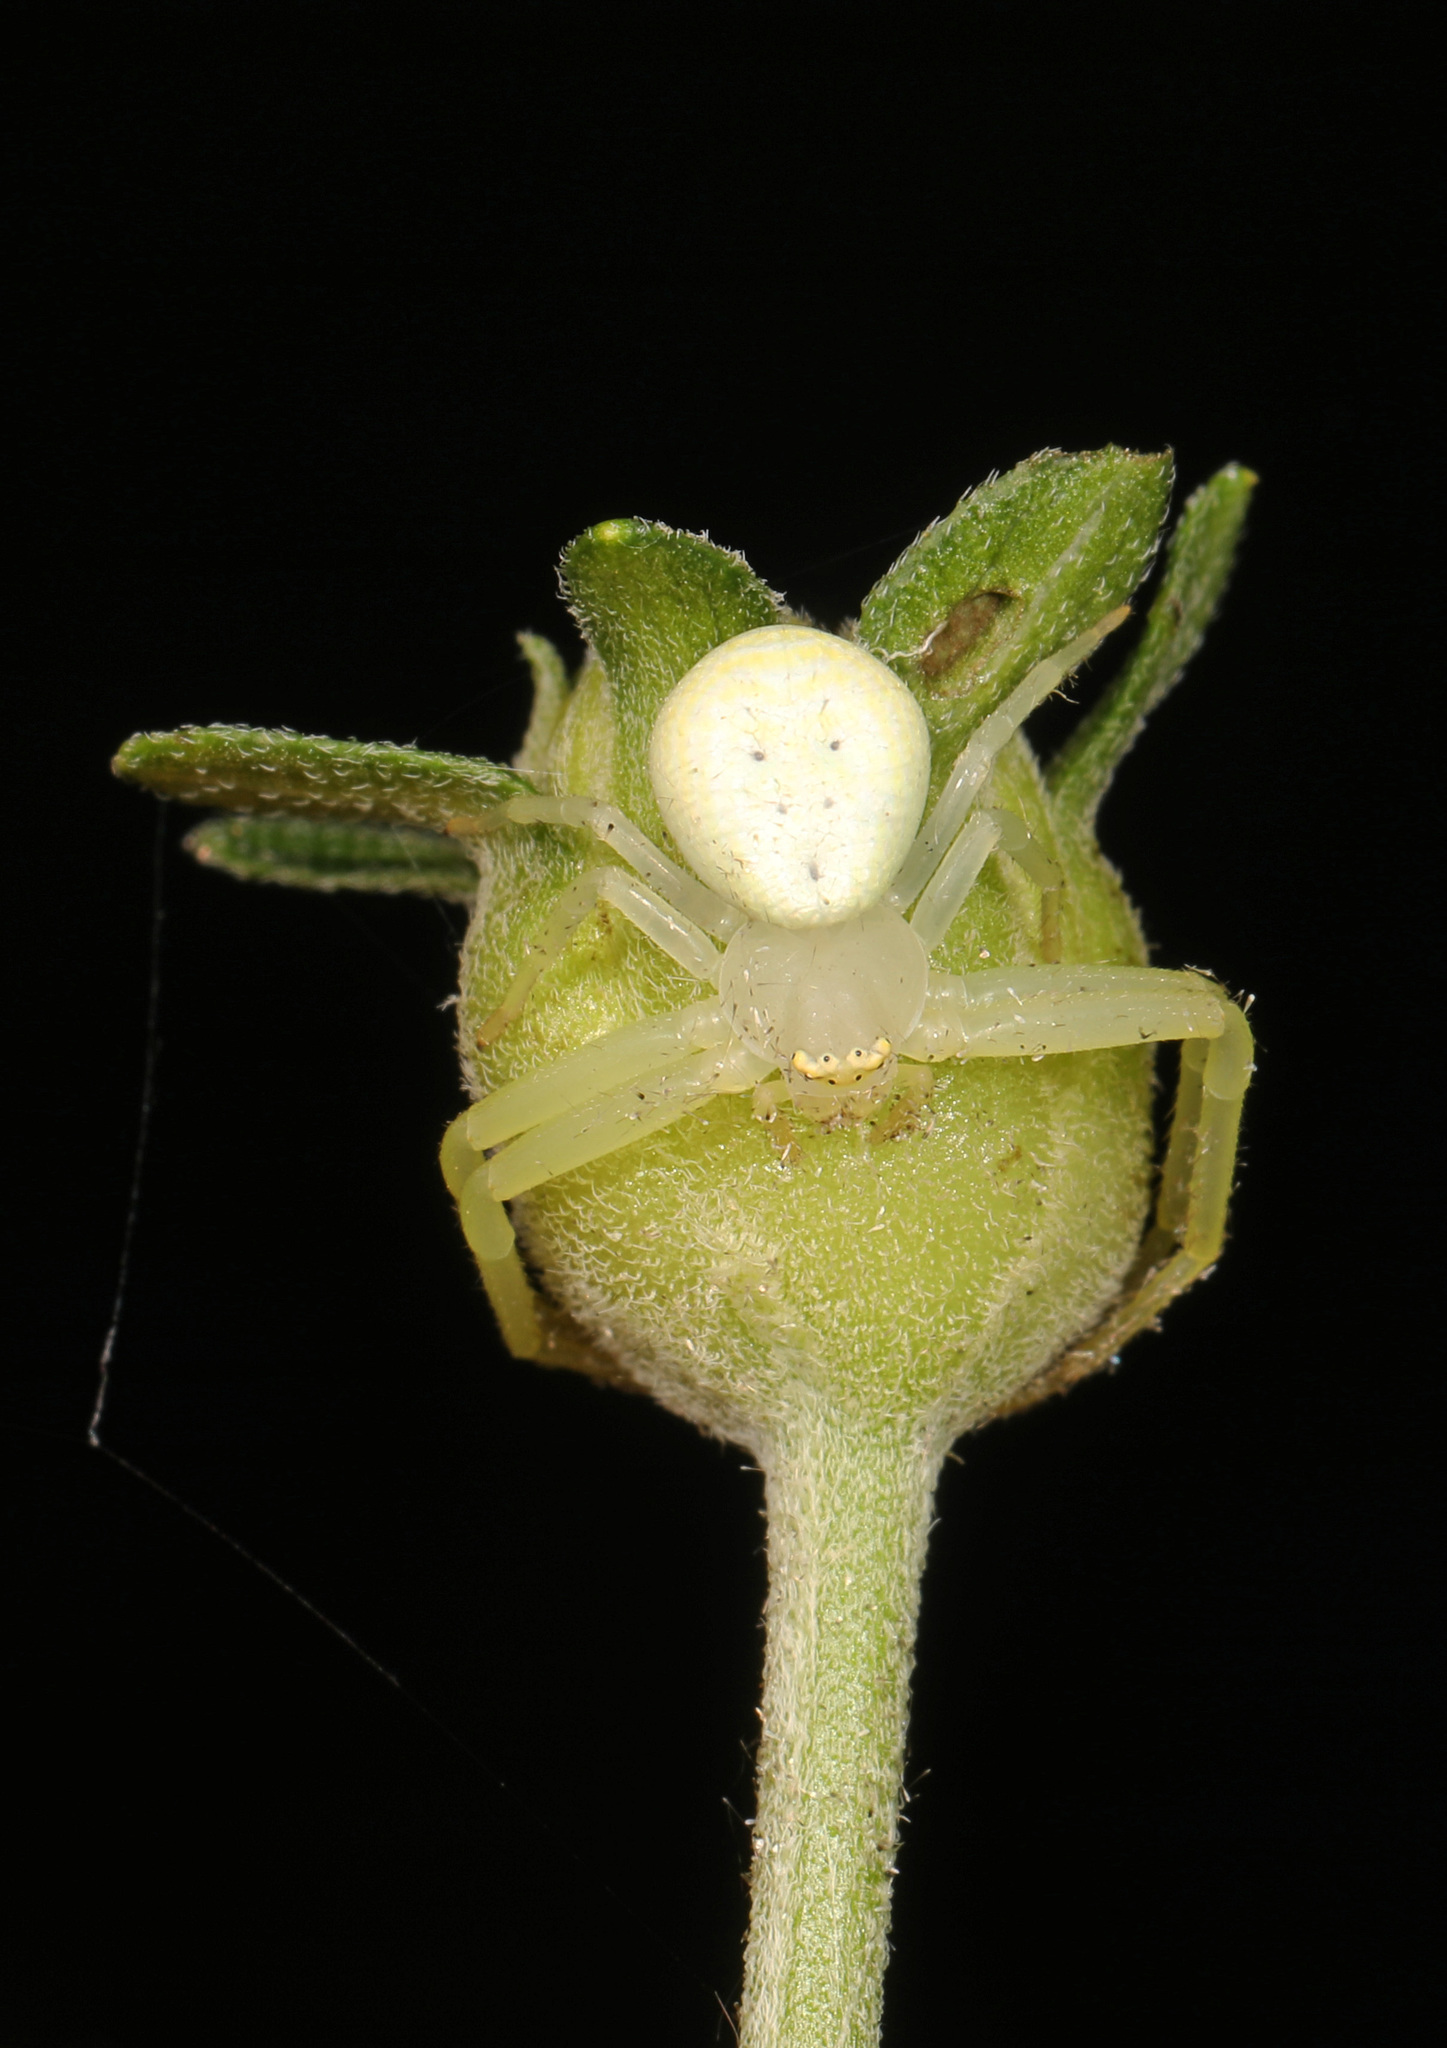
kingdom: Animalia
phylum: Arthropoda
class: Arachnida
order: Araneae
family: Thomisidae
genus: Misumessus
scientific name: Misumessus oblongus
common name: American green crab spider
